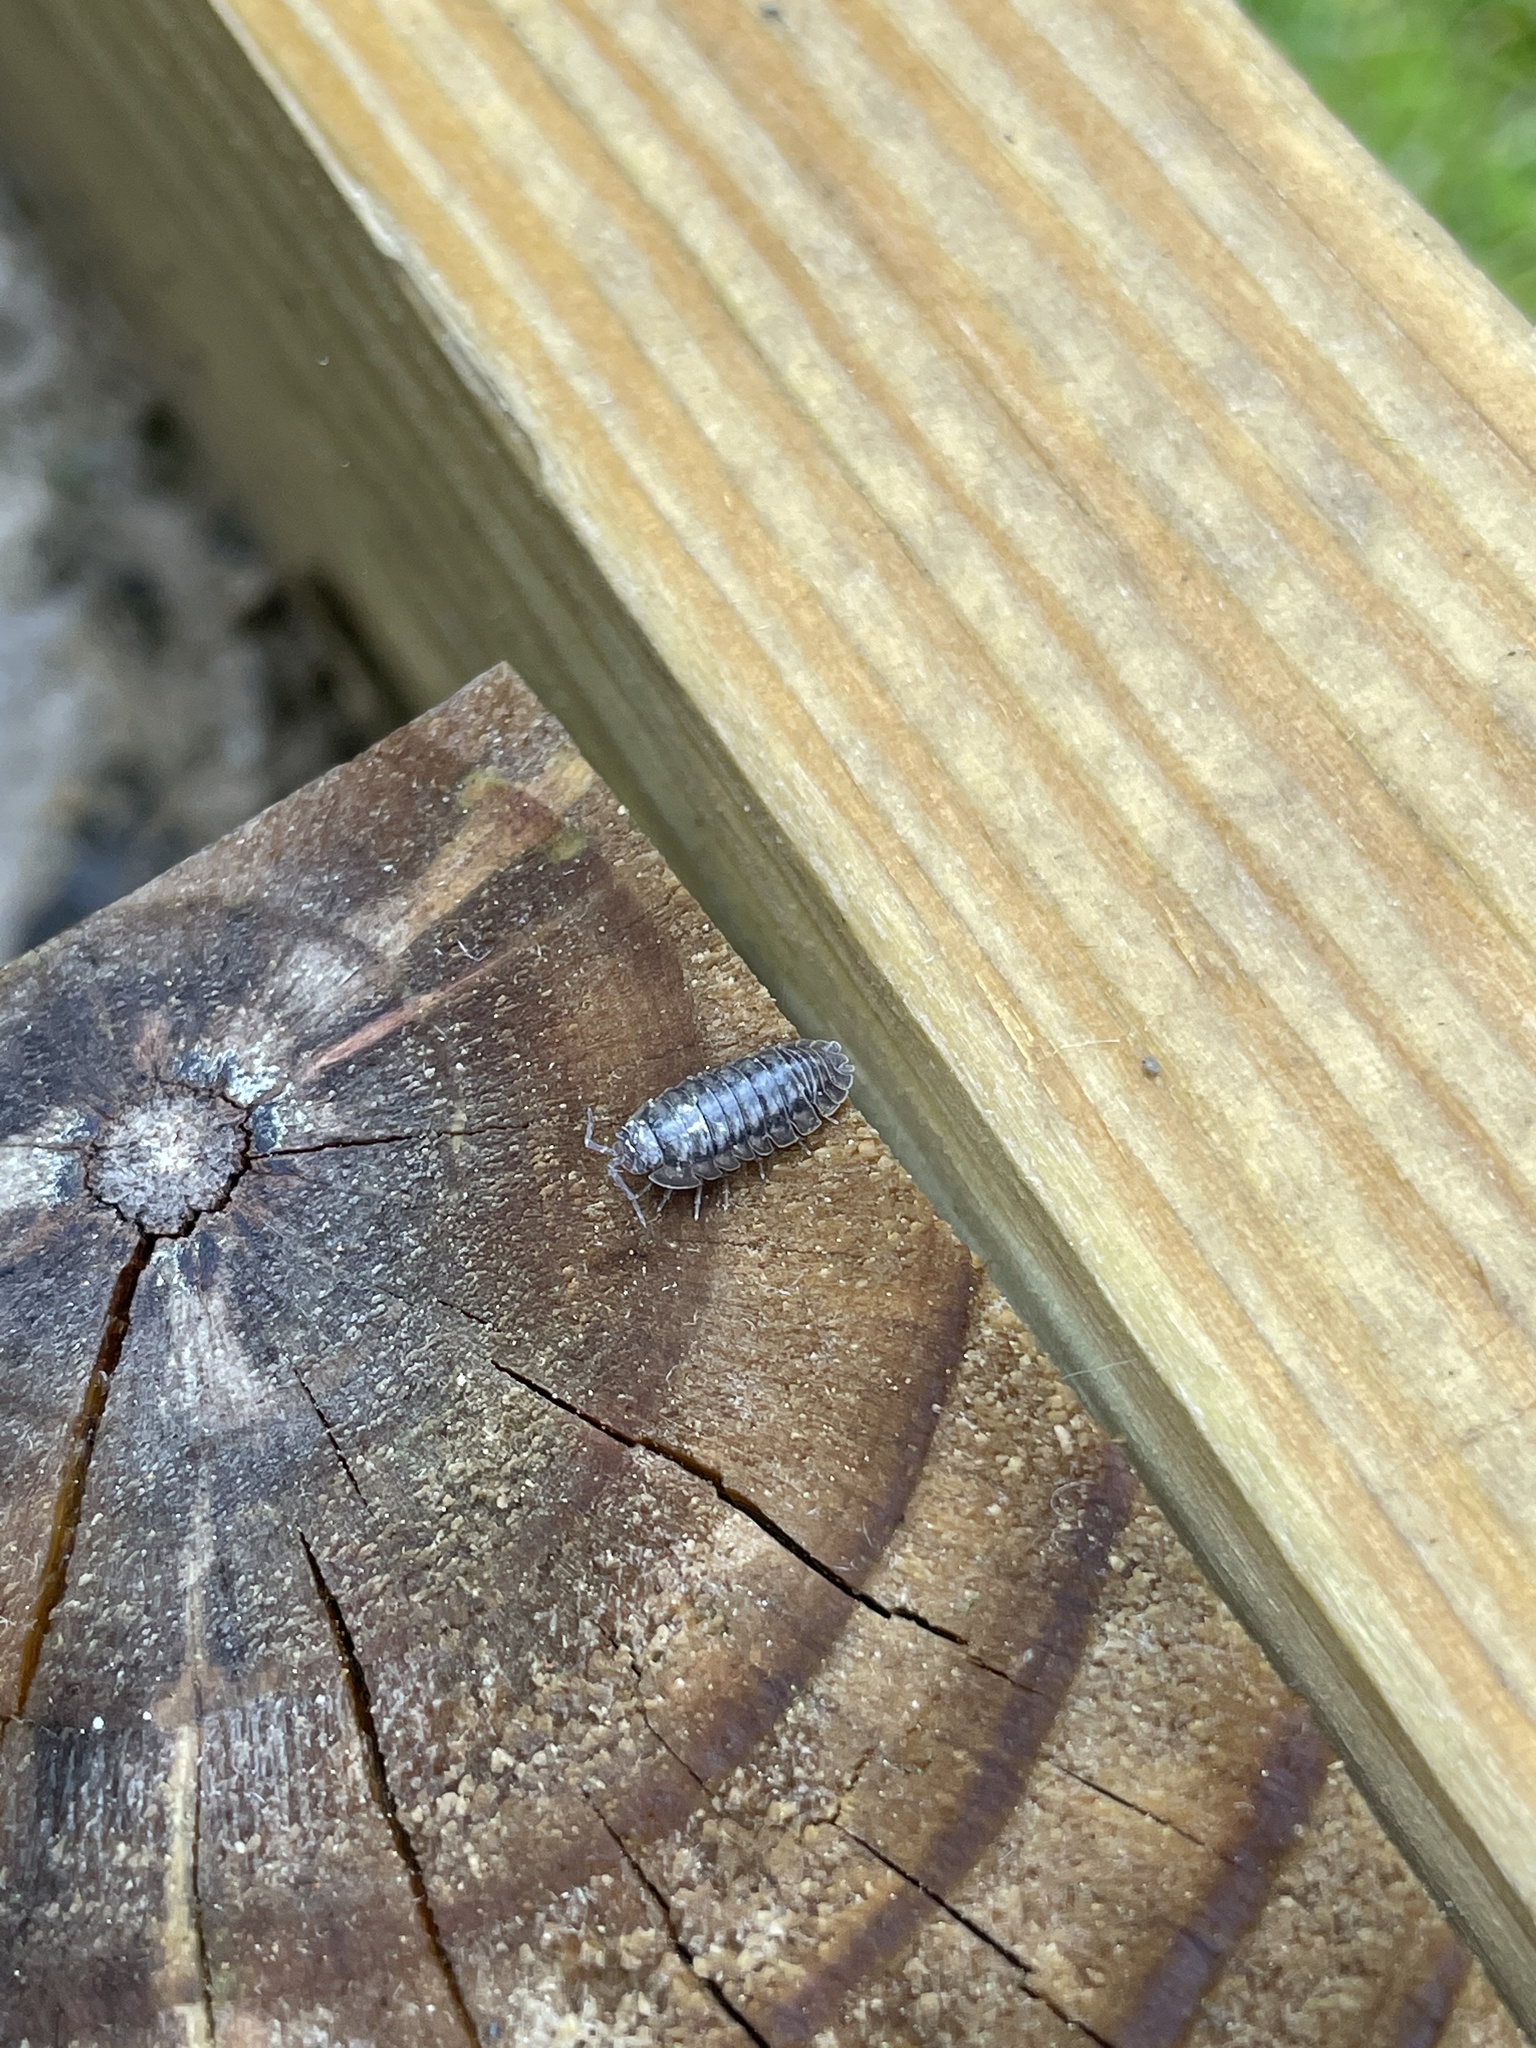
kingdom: Animalia
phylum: Arthropoda
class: Malacostraca
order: Isopoda
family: Armadillidiidae
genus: Armadillidium
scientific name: Armadillidium nasatum
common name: Isopod
